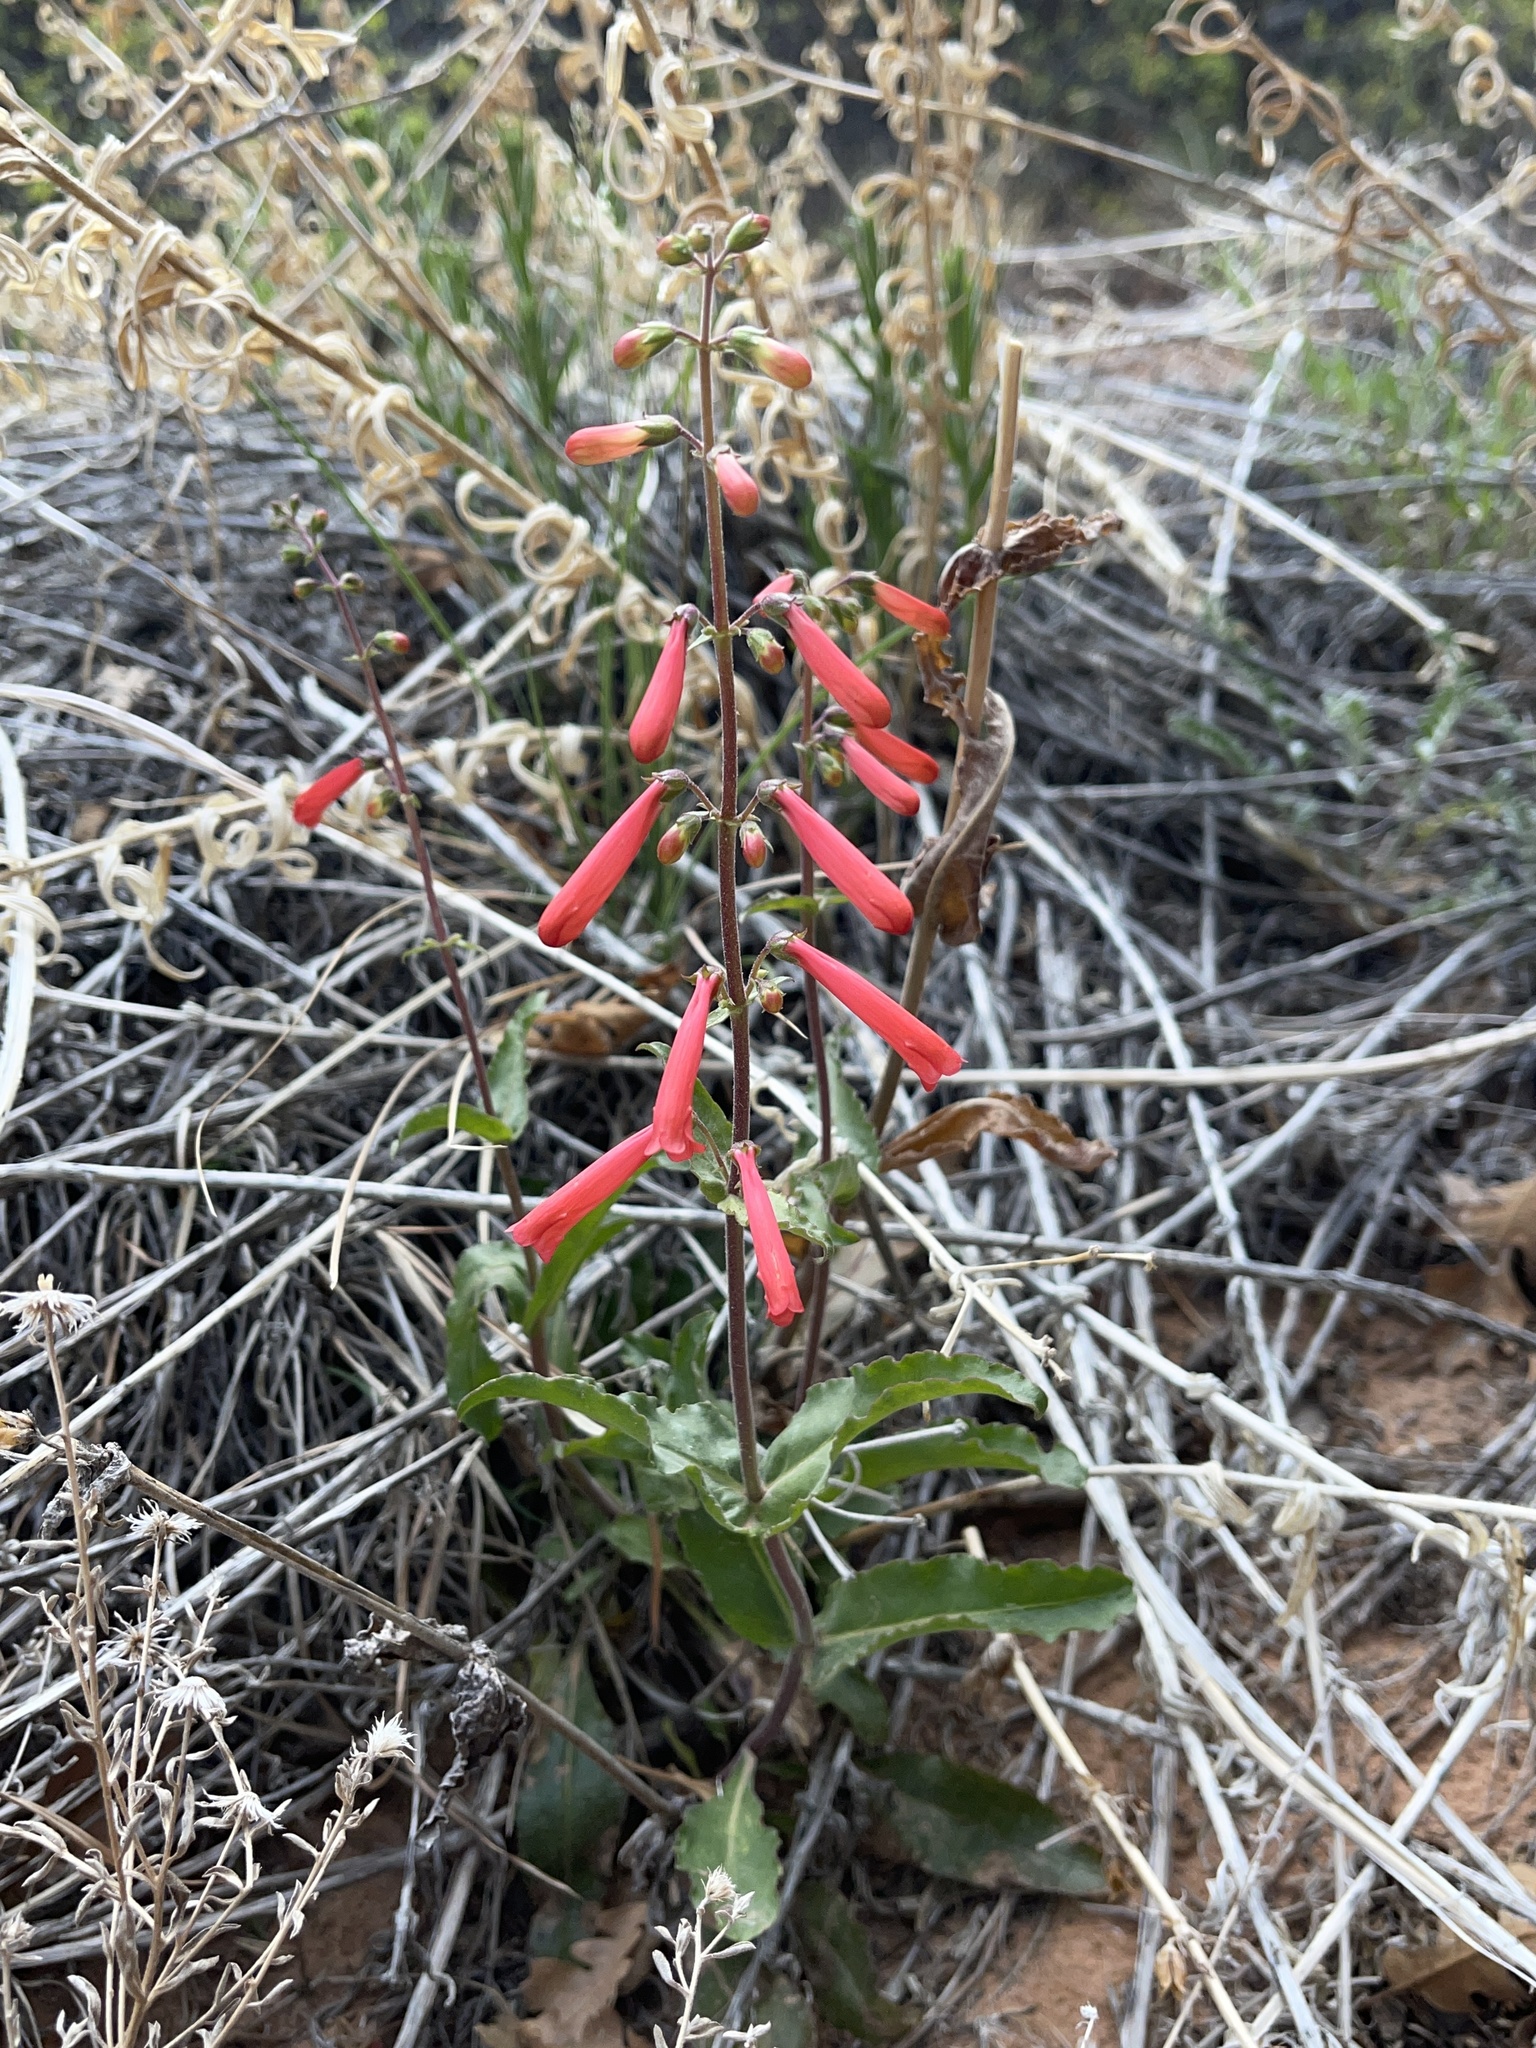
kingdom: Plantae
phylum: Tracheophyta
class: Magnoliopsida
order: Lamiales
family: Plantaginaceae
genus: Penstemon
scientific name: Penstemon eatonii
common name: Eaton's penstemon
